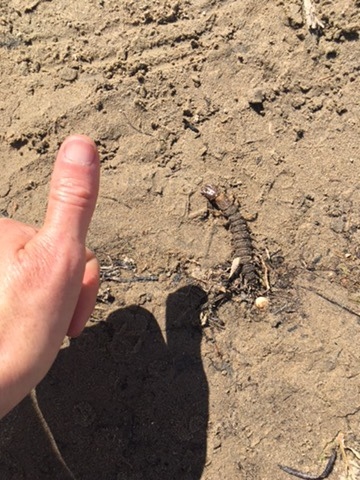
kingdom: Animalia
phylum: Arthropoda
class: Insecta
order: Megaloptera
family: Corydalidae
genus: Corydalus
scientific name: Corydalus texanus
